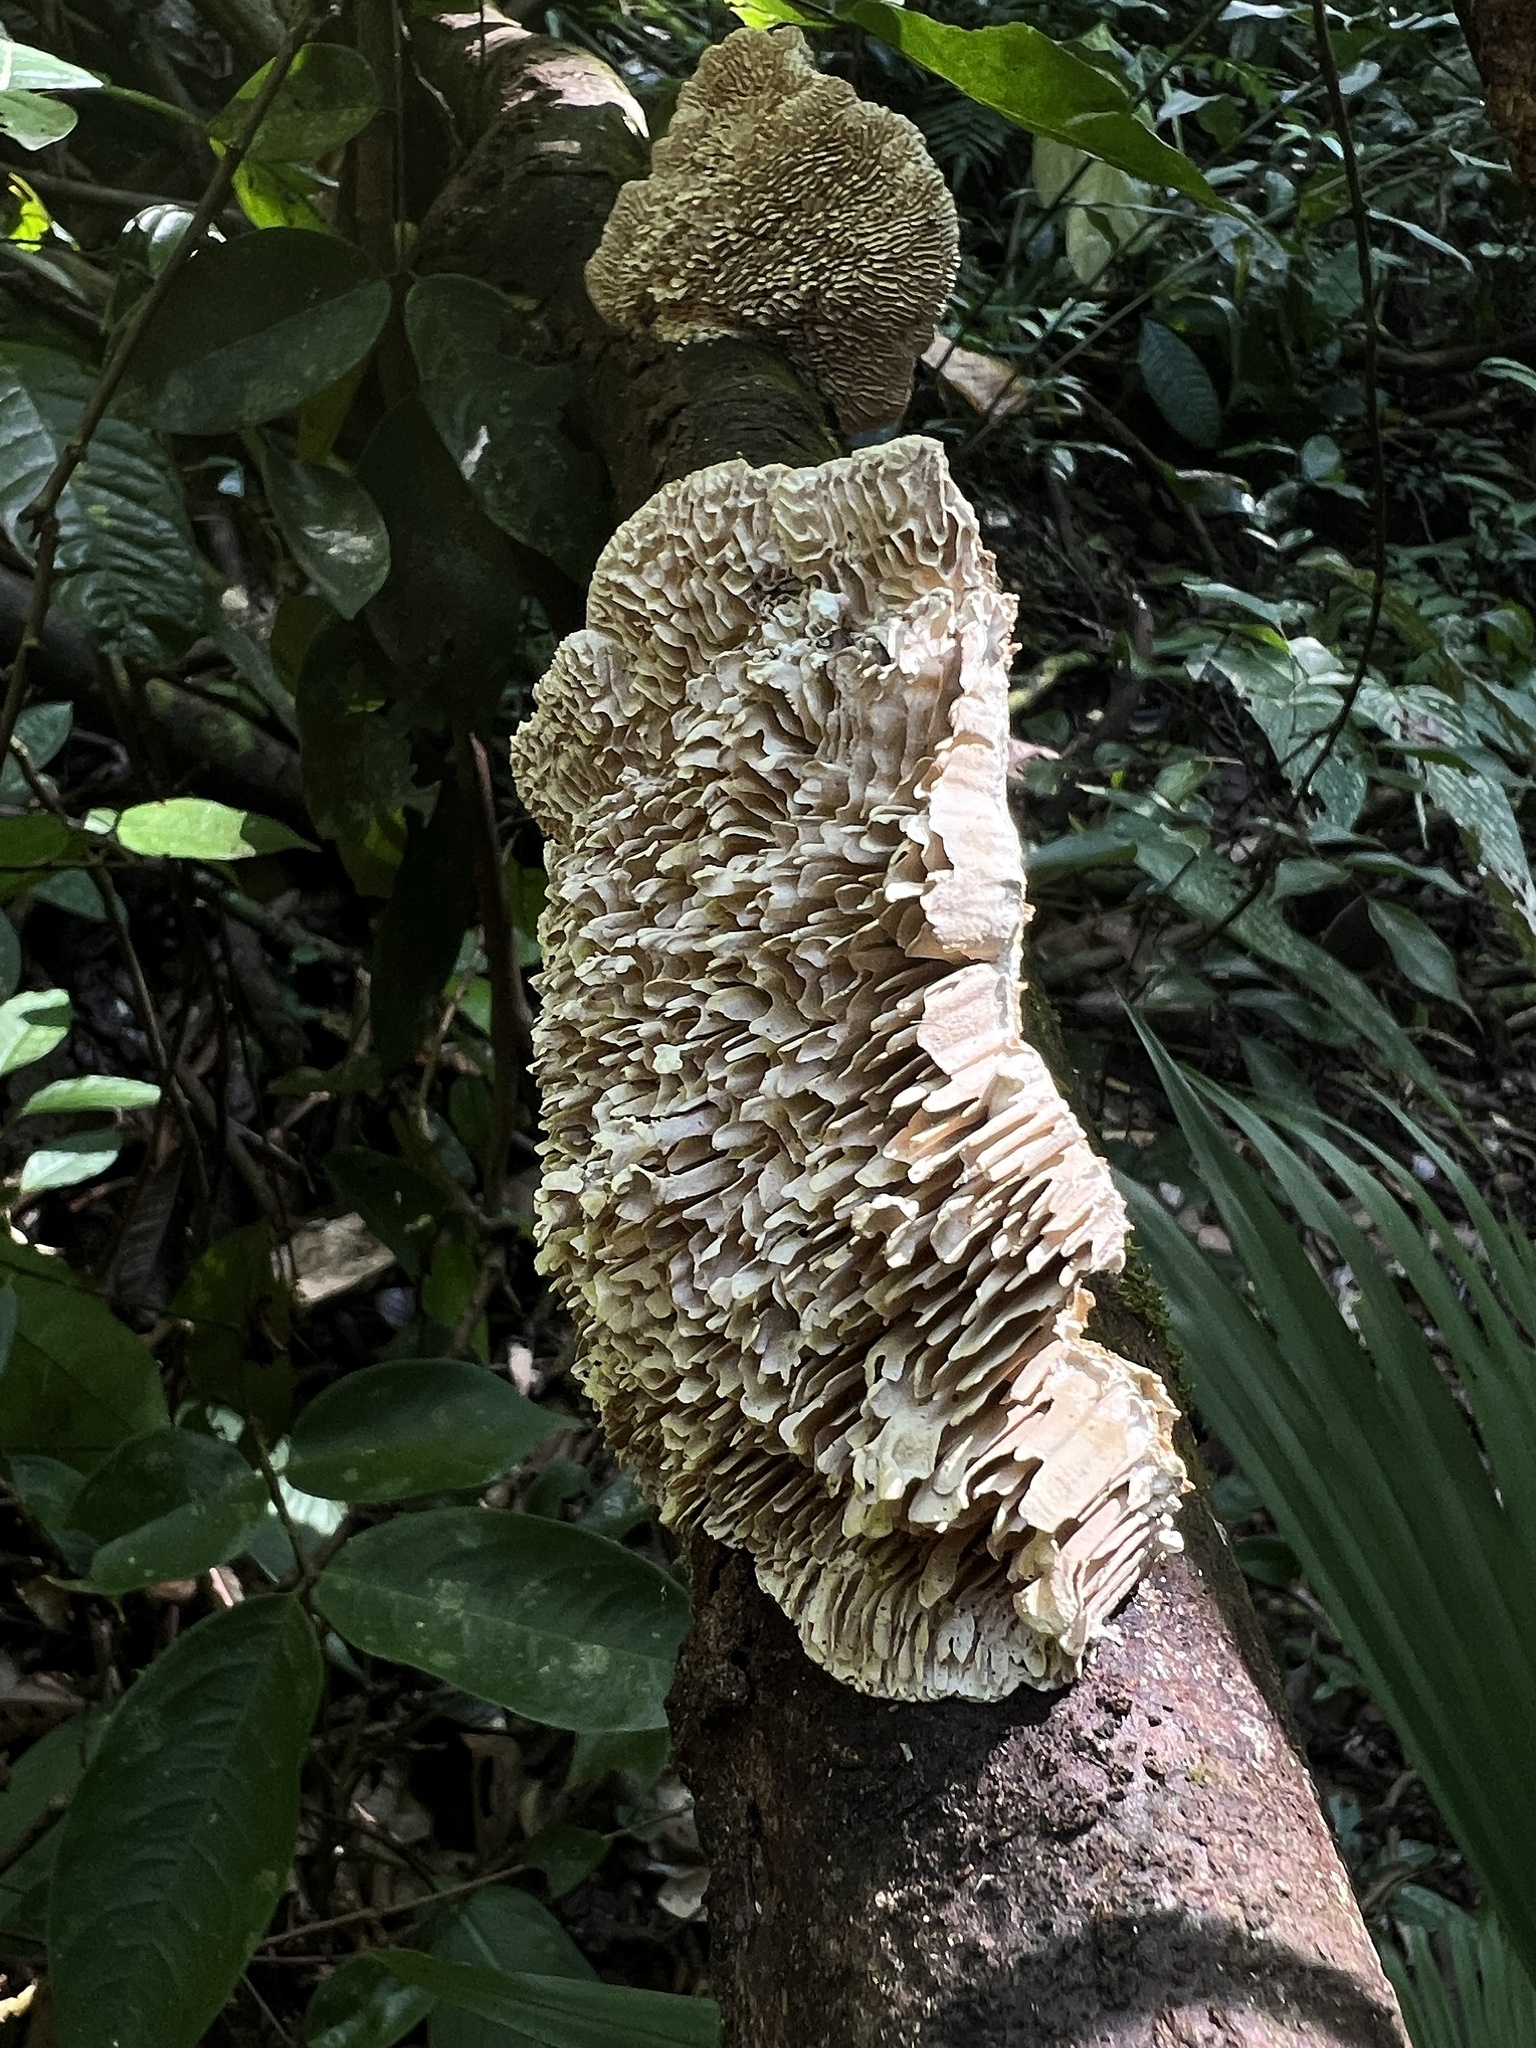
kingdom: Fungi
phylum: Basidiomycota
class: Agaricomycetes
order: Polyporales
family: Polyporaceae
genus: Lenzites
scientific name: Lenzites betulinus
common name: Birch mazegill
